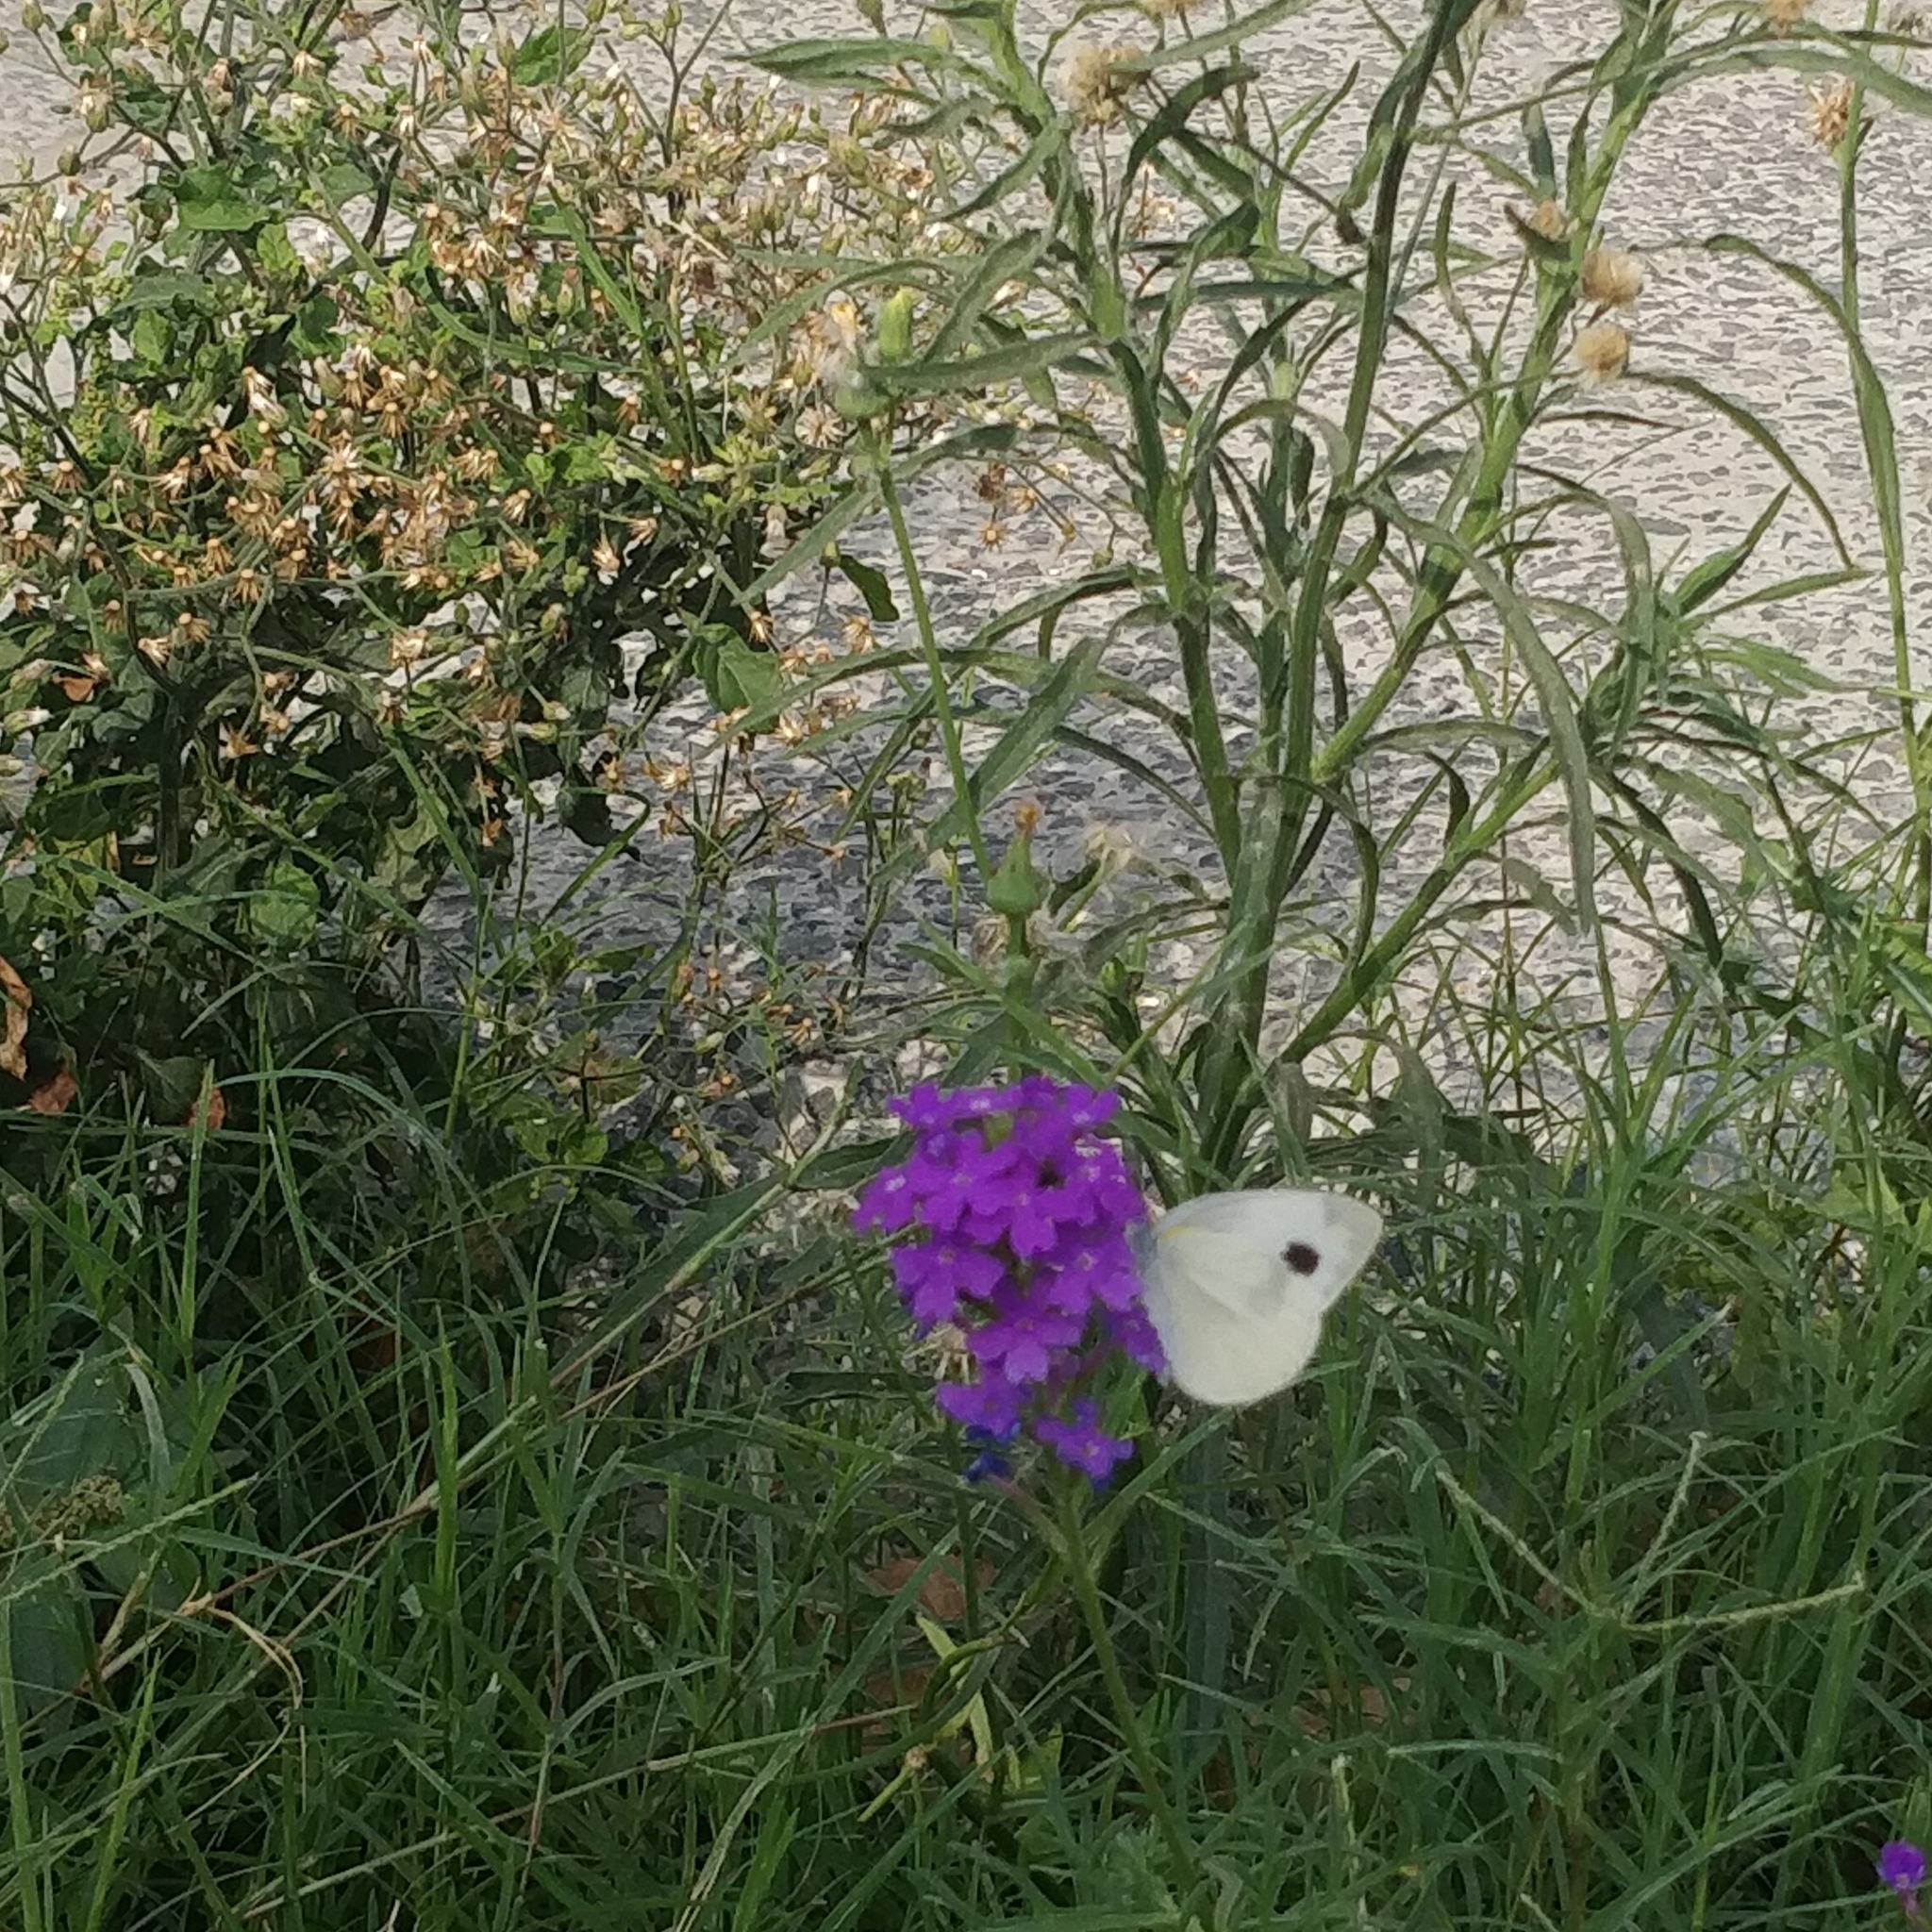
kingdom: Animalia
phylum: Arthropoda
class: Insecta
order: Lepidoptera
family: Pieridae
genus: Pieris
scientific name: Pieris canidia
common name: Indian cabbage white
